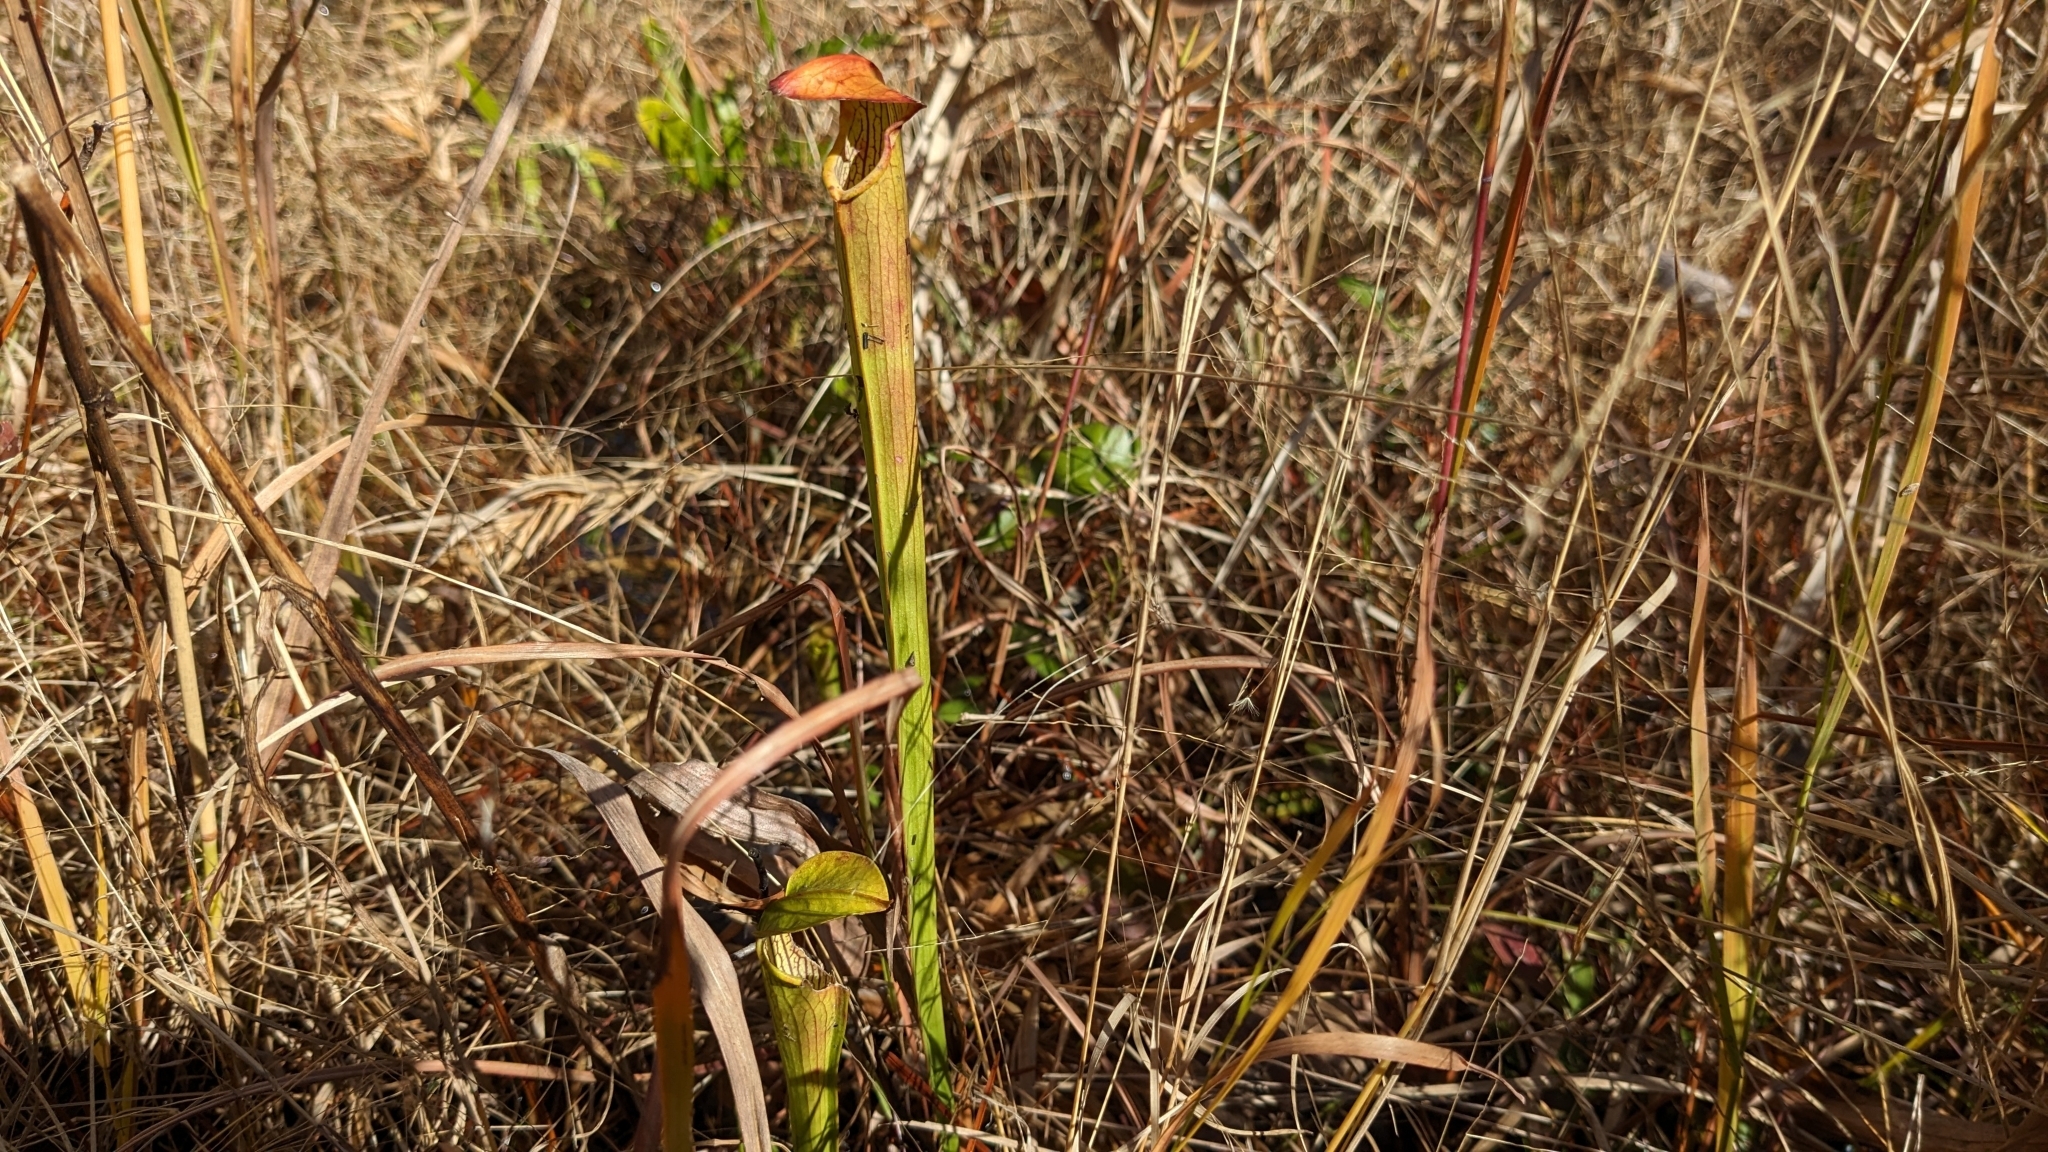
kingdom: Plantae
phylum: Tracheophyta
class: Magnoliopsida
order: Ericales
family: Sarraceniaceae
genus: Sarracenia
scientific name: Sarracenia alata
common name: Yellow trumpets
